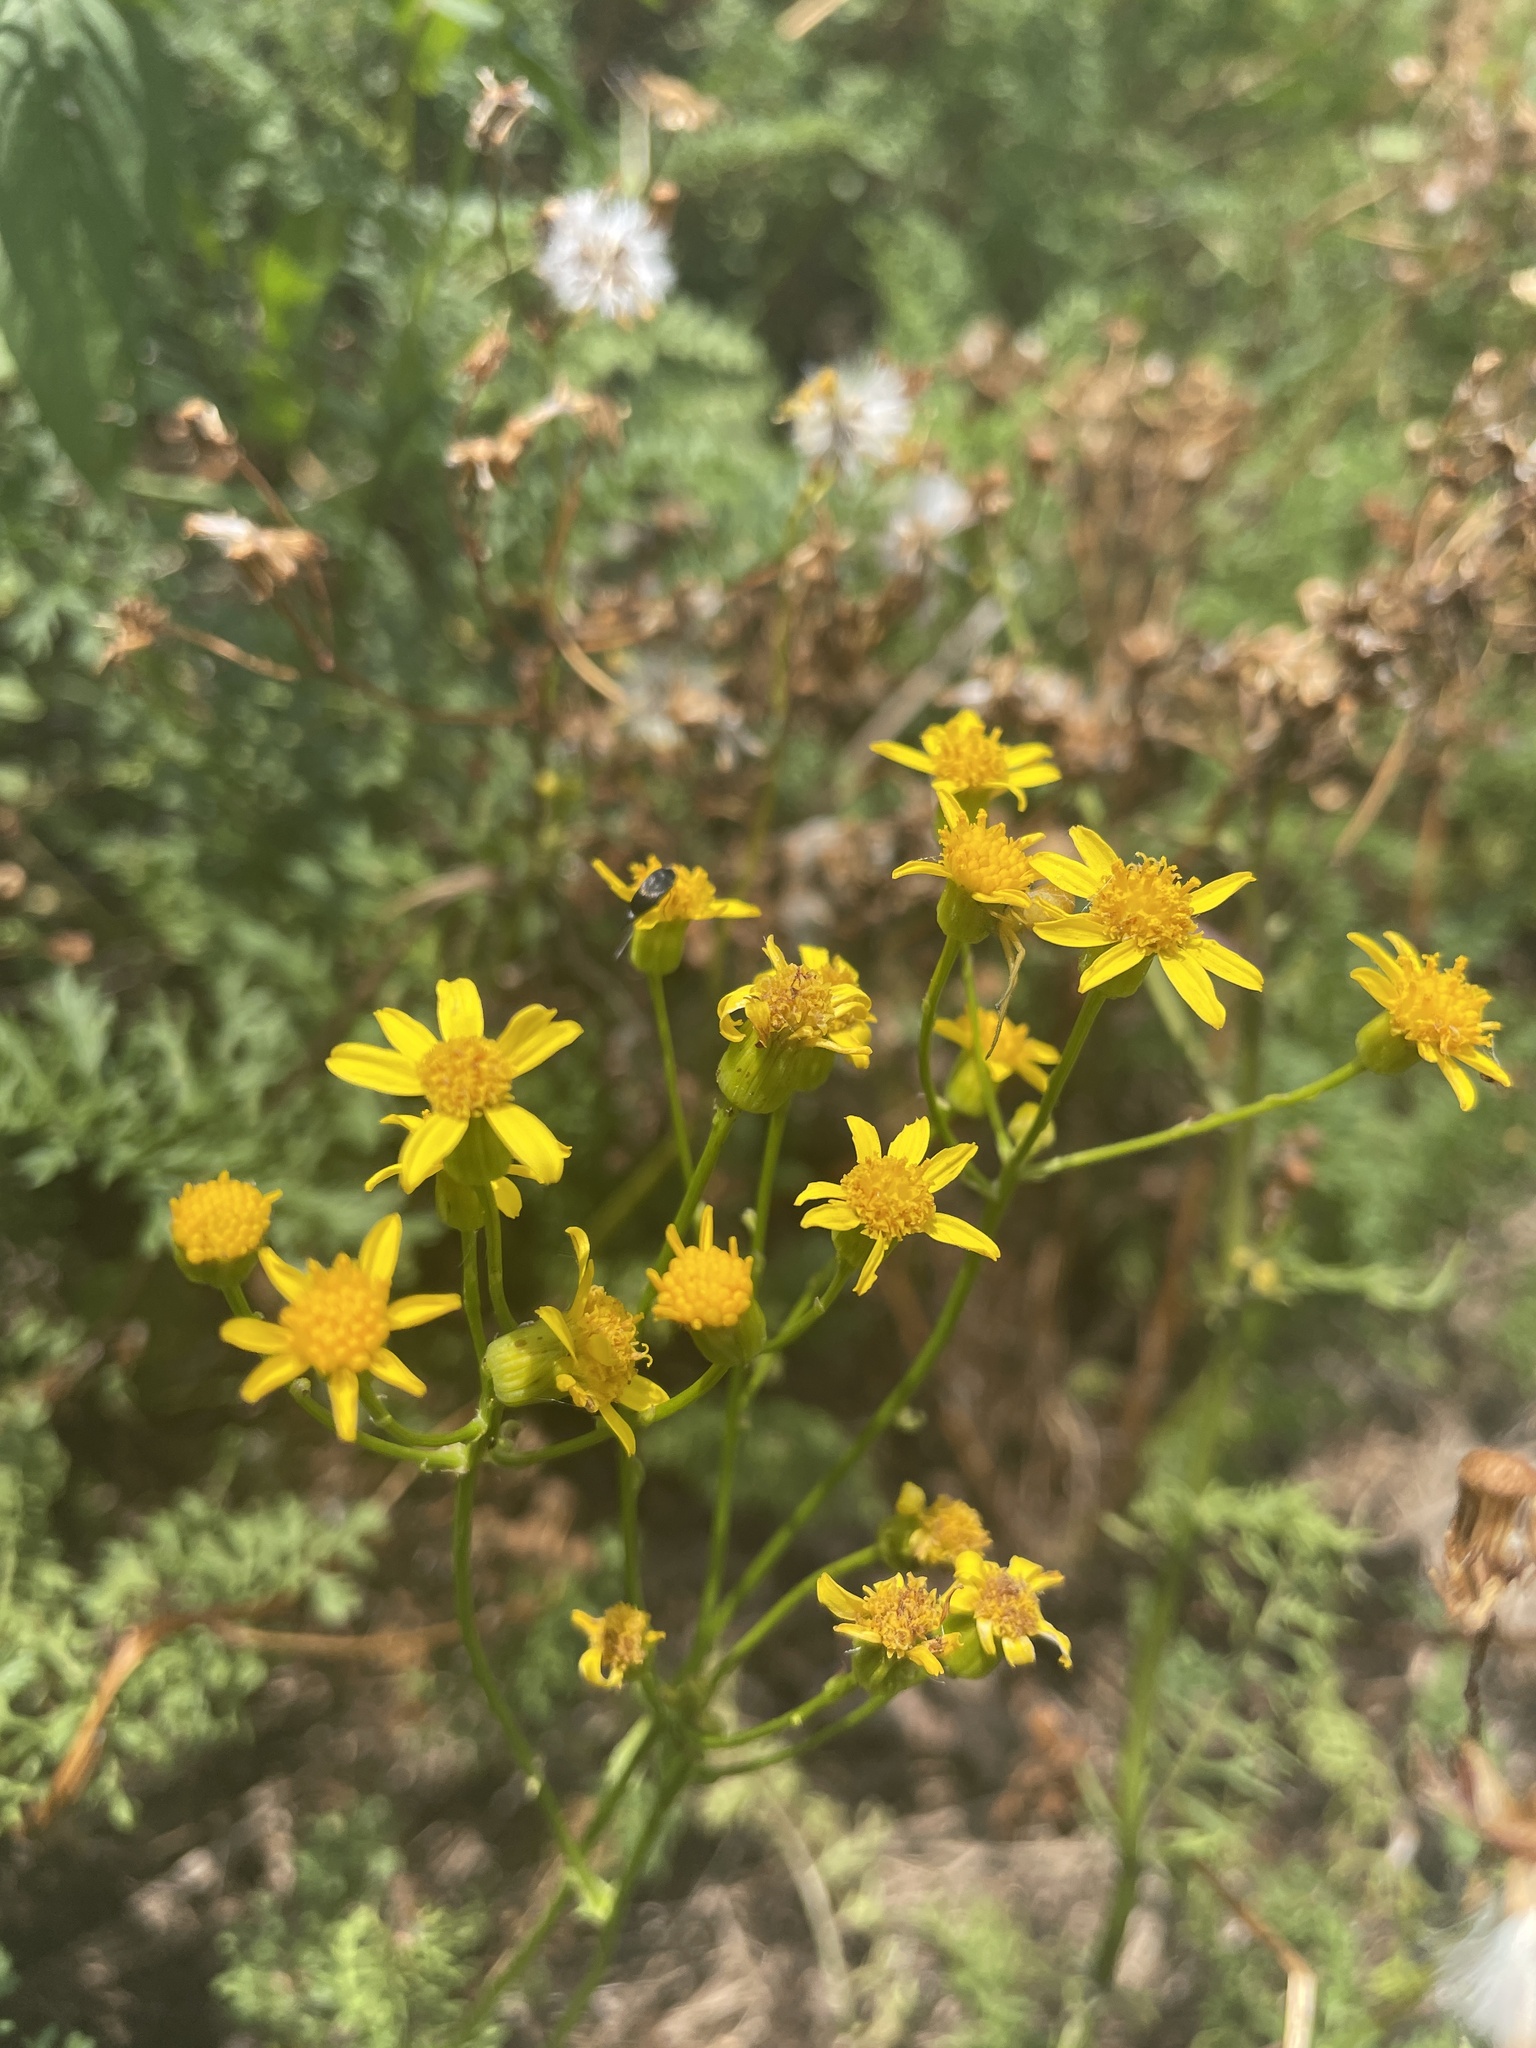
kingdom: Plantae
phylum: Tracheophyta
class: Magnoliopsida
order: Asterales
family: Asteraceae
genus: Packera
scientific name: Packera millefolia
